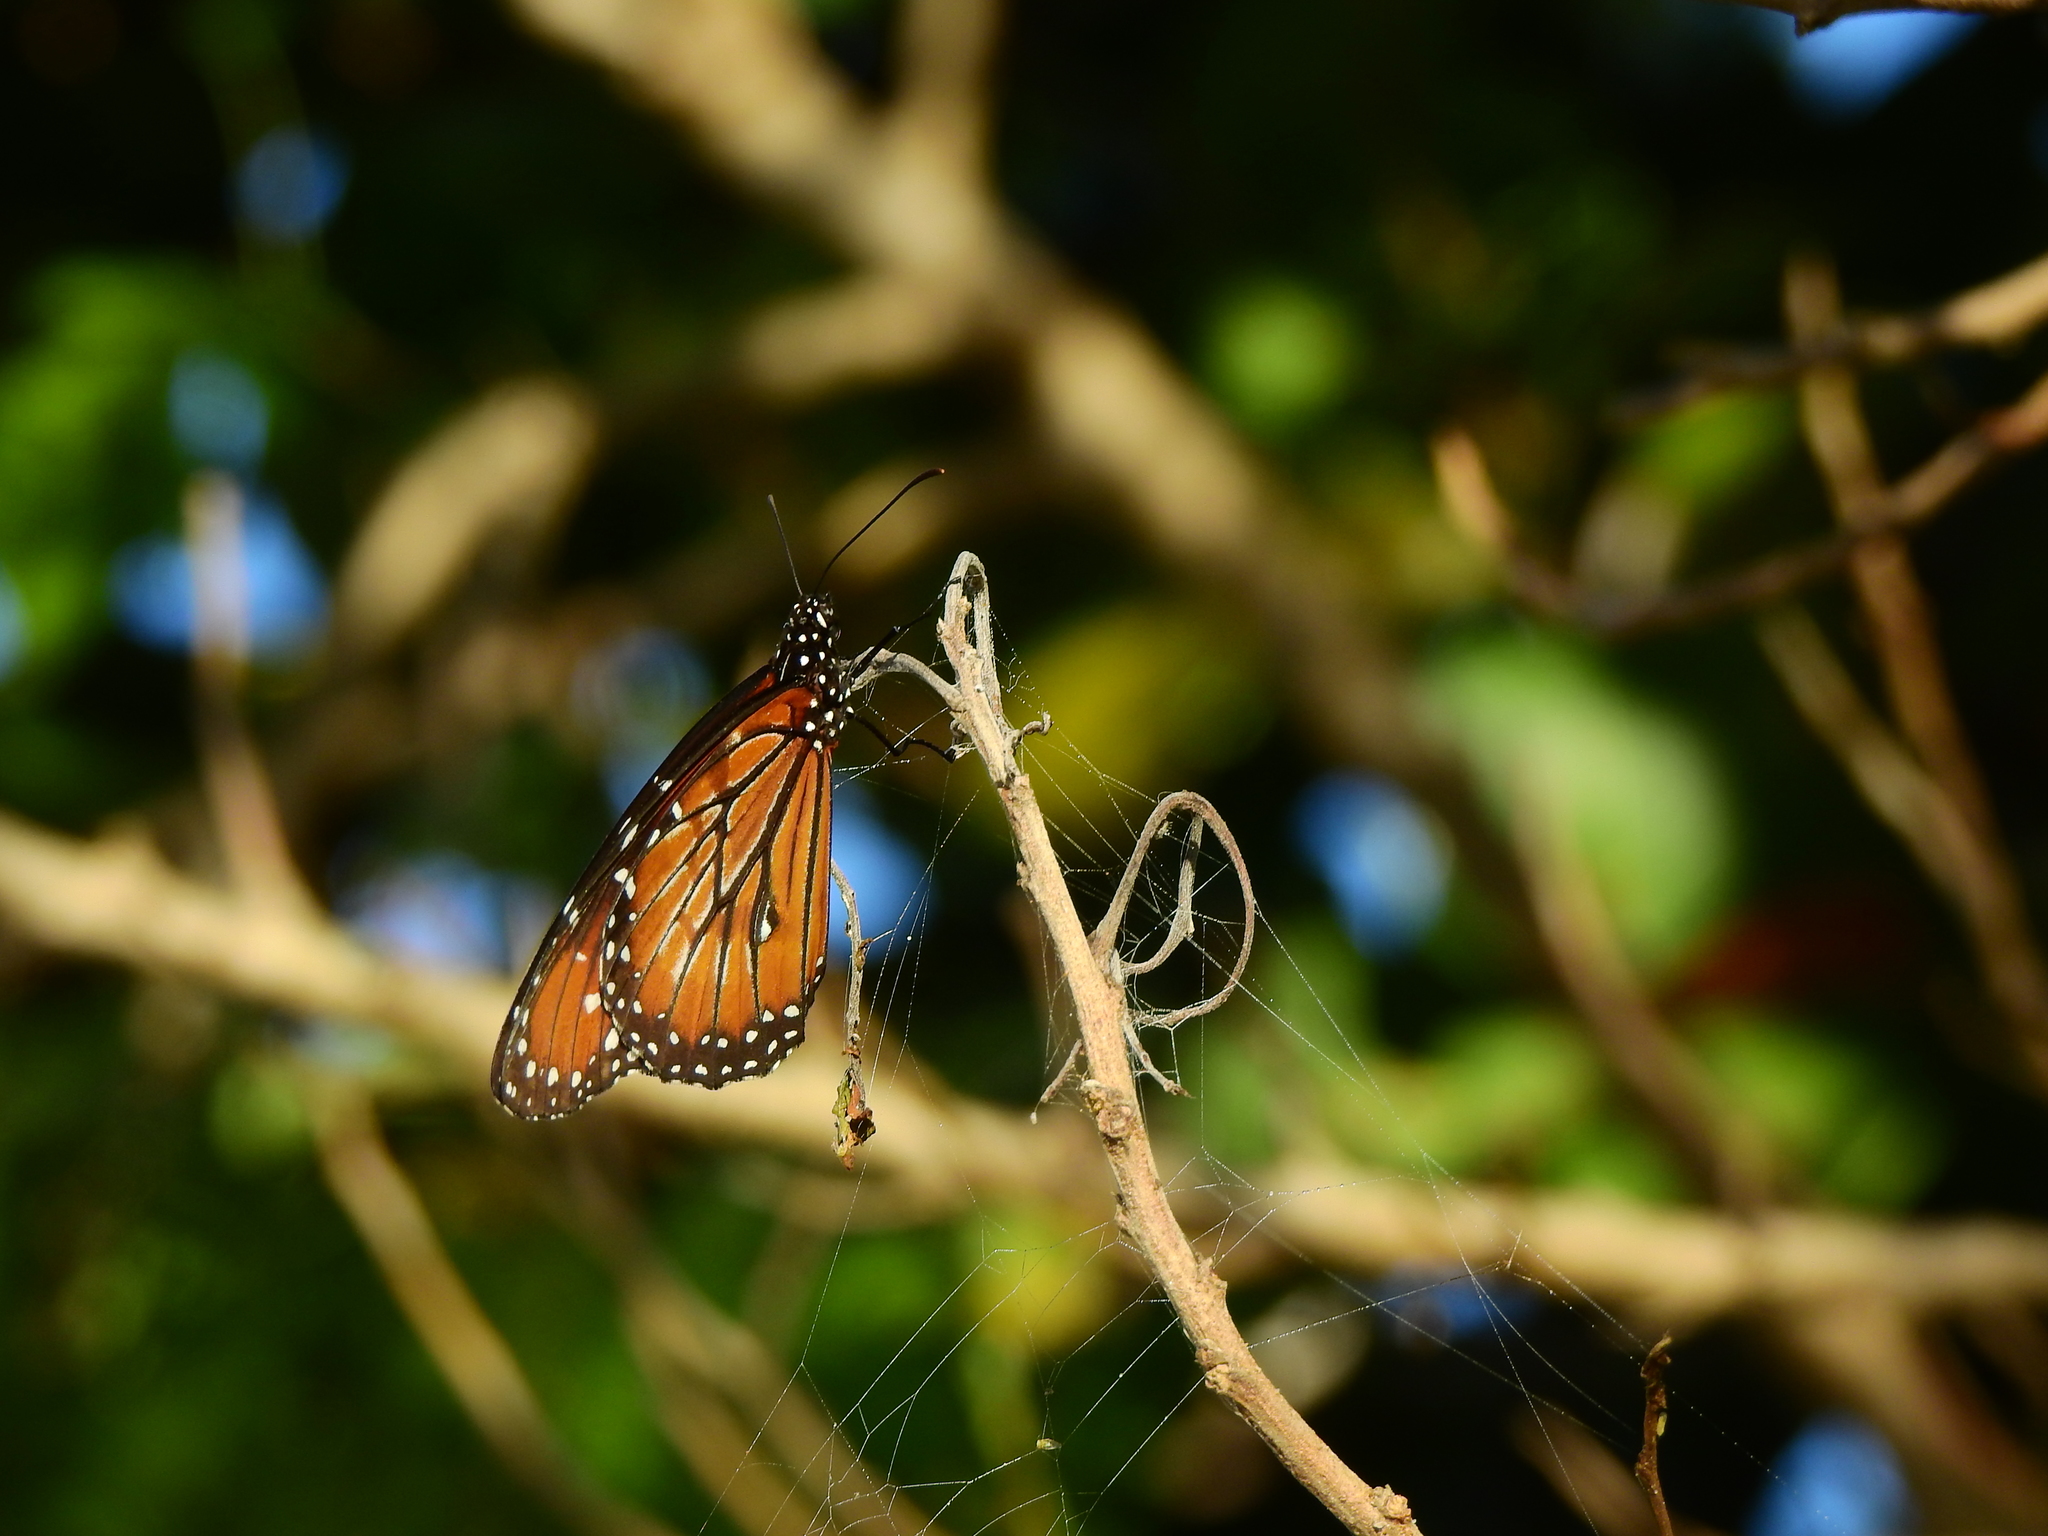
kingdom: Animalia
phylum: Arthropoda
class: Insecta
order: Lepidoptera
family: Nymphalidae
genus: Danaus
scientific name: Danaus eresimus
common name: Soldier
